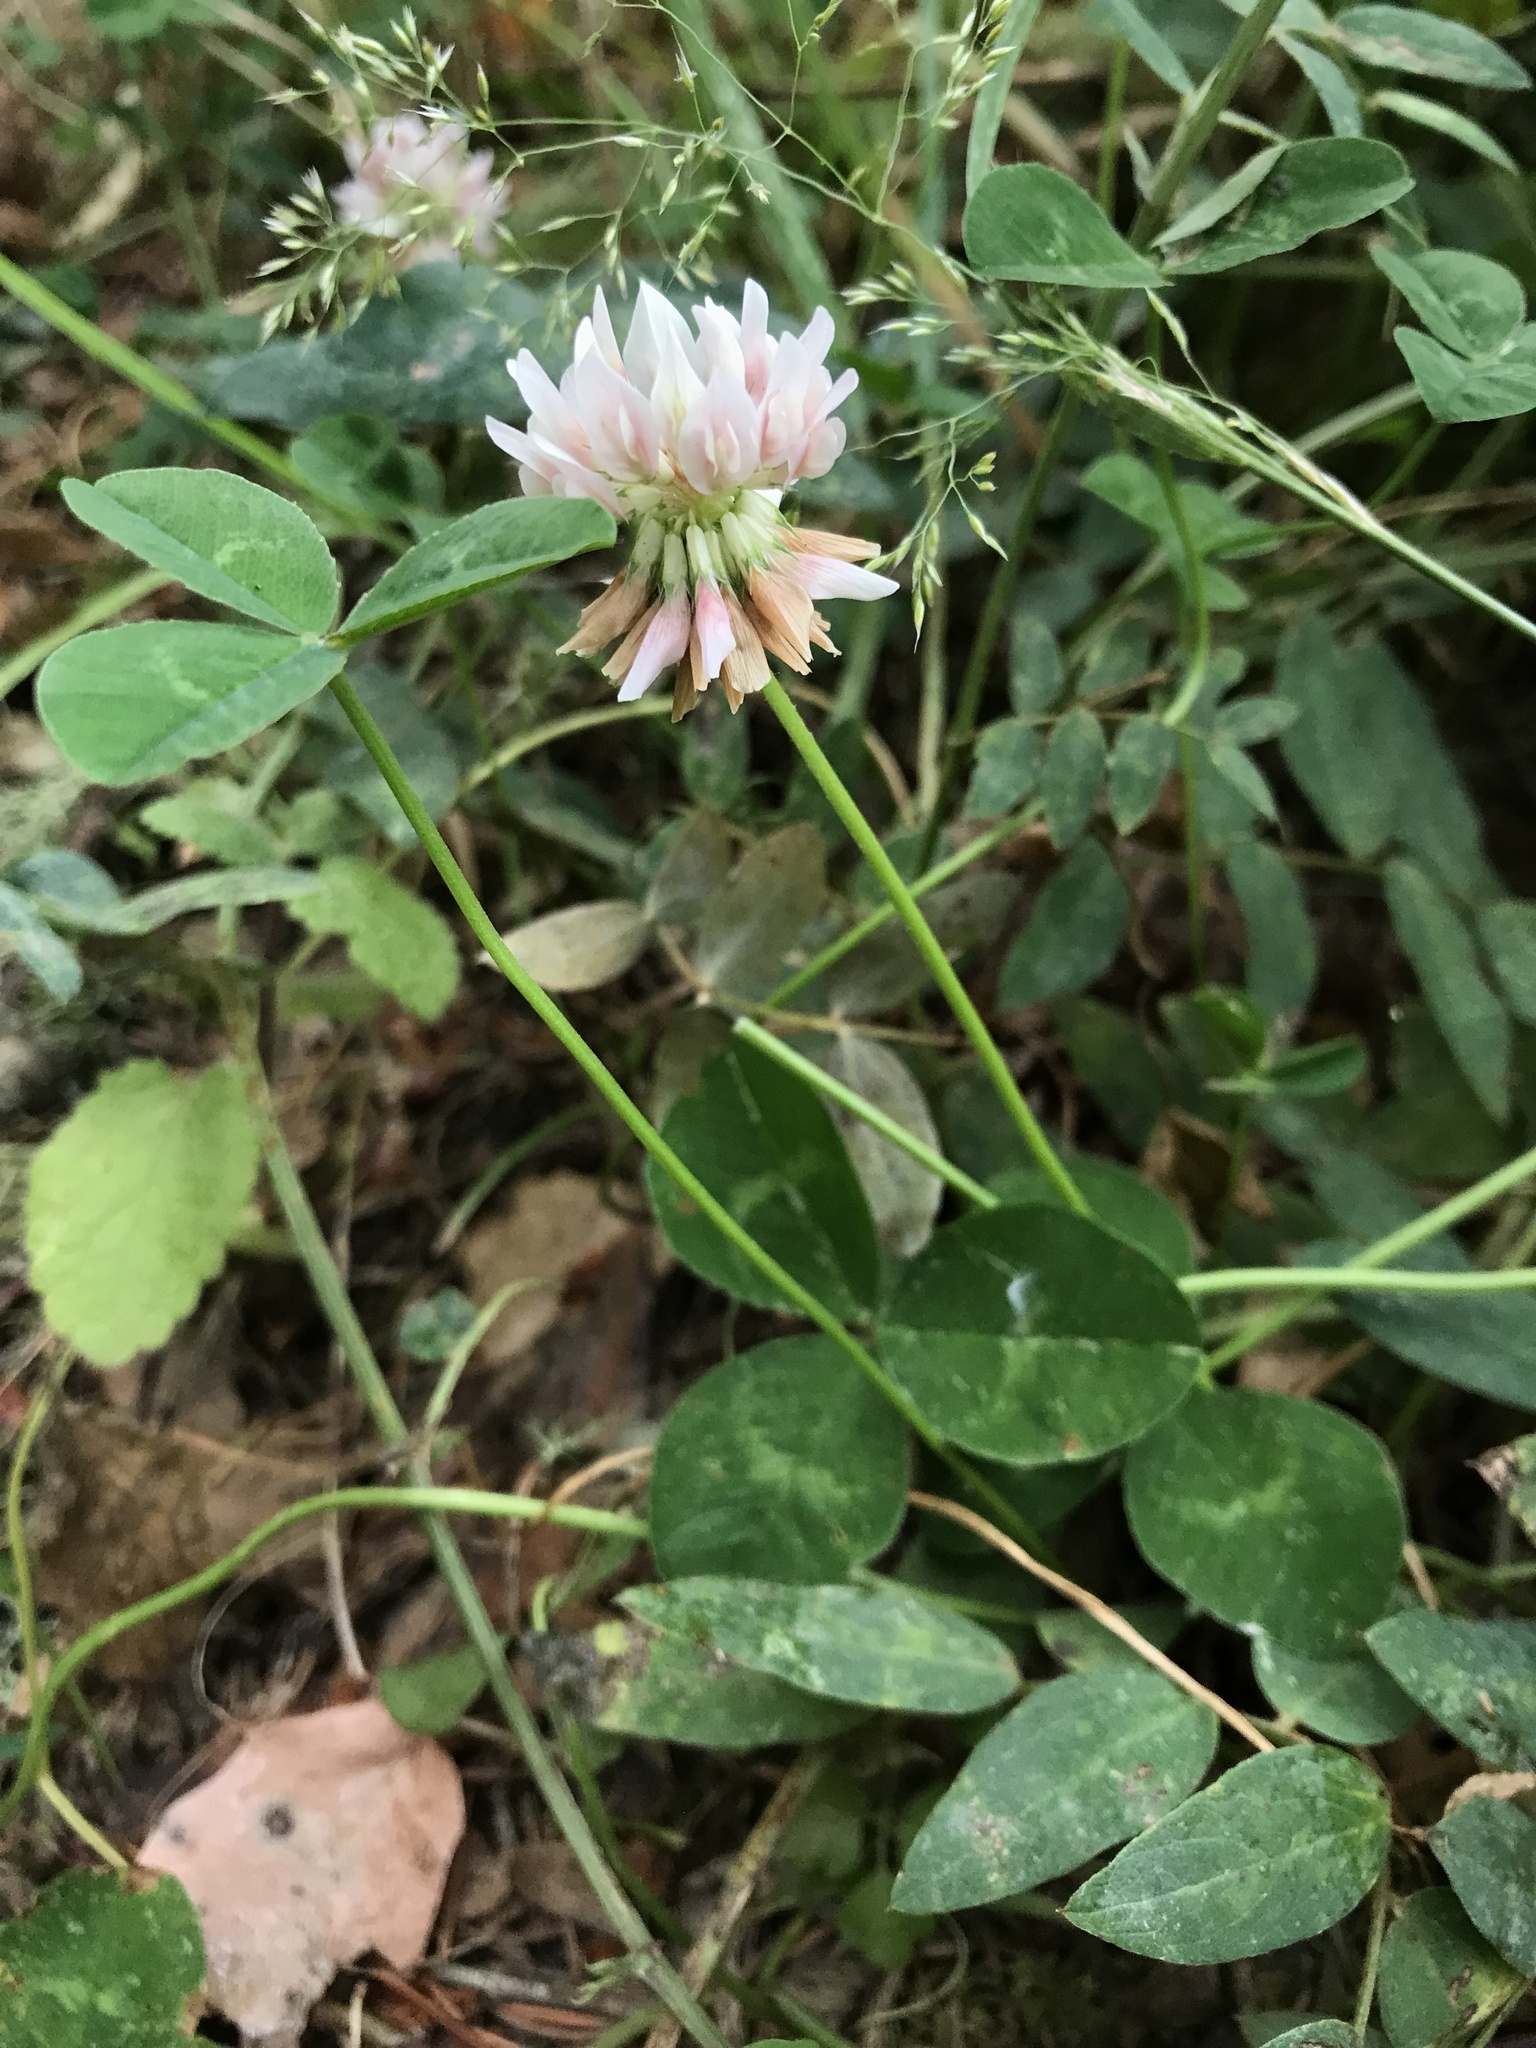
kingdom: Plantae
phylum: Tracheophyta
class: Magnoliopsida
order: Fabales
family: Fabaceae
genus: Trifolium
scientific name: Trifolium repens
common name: White clover
